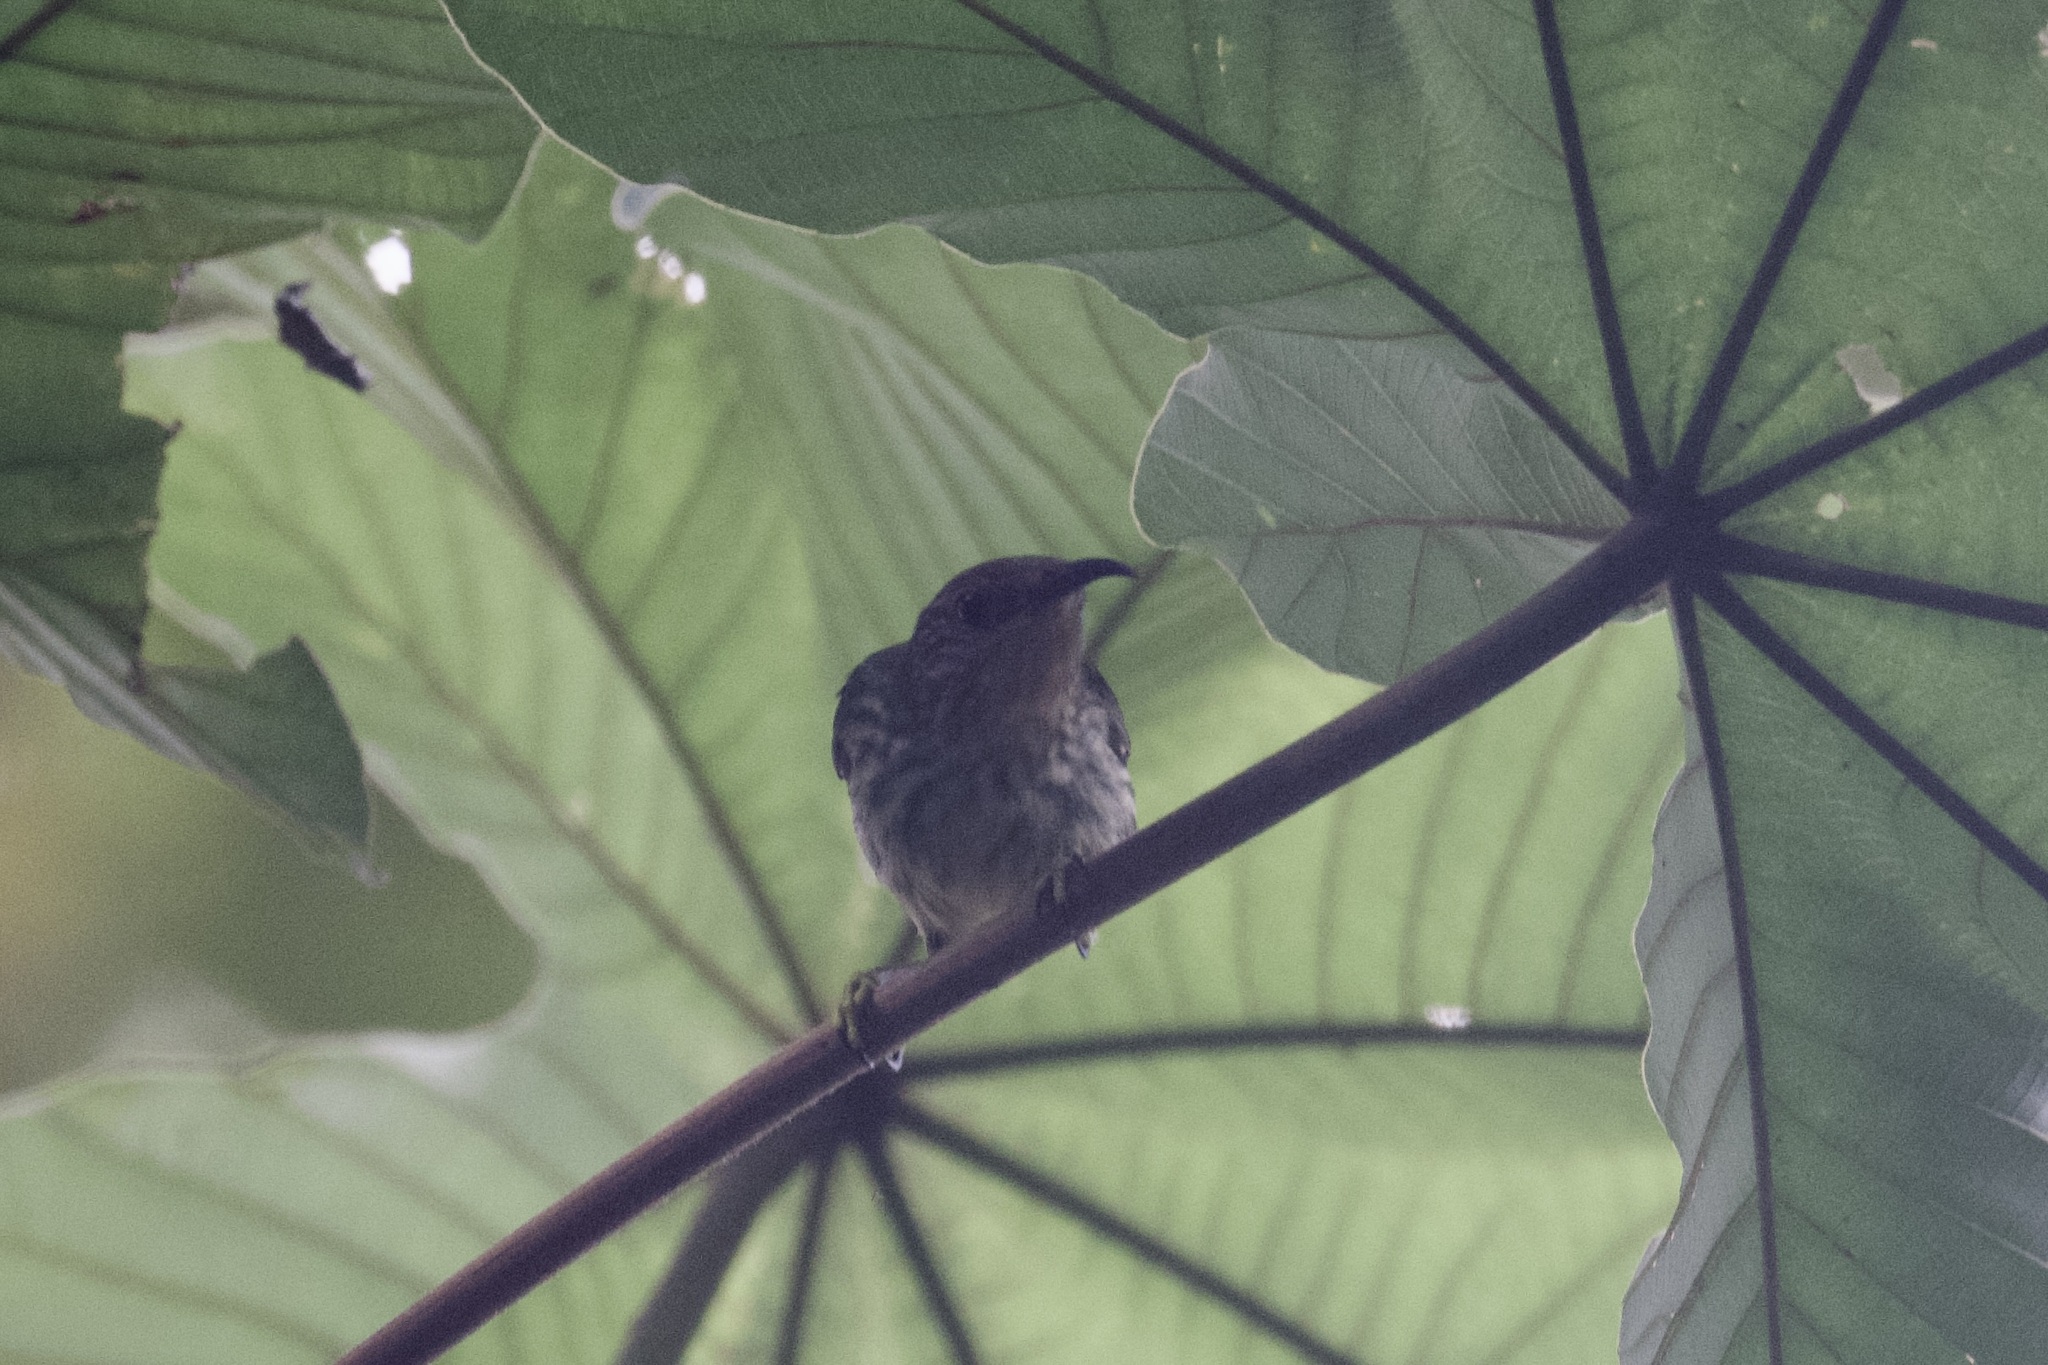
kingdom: Animalia
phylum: Chordata
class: Aves
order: Passeriformes
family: Thraupidae
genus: Cyanerpes
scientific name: Cyanerpes caeruleus
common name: Purple honeycreeper
